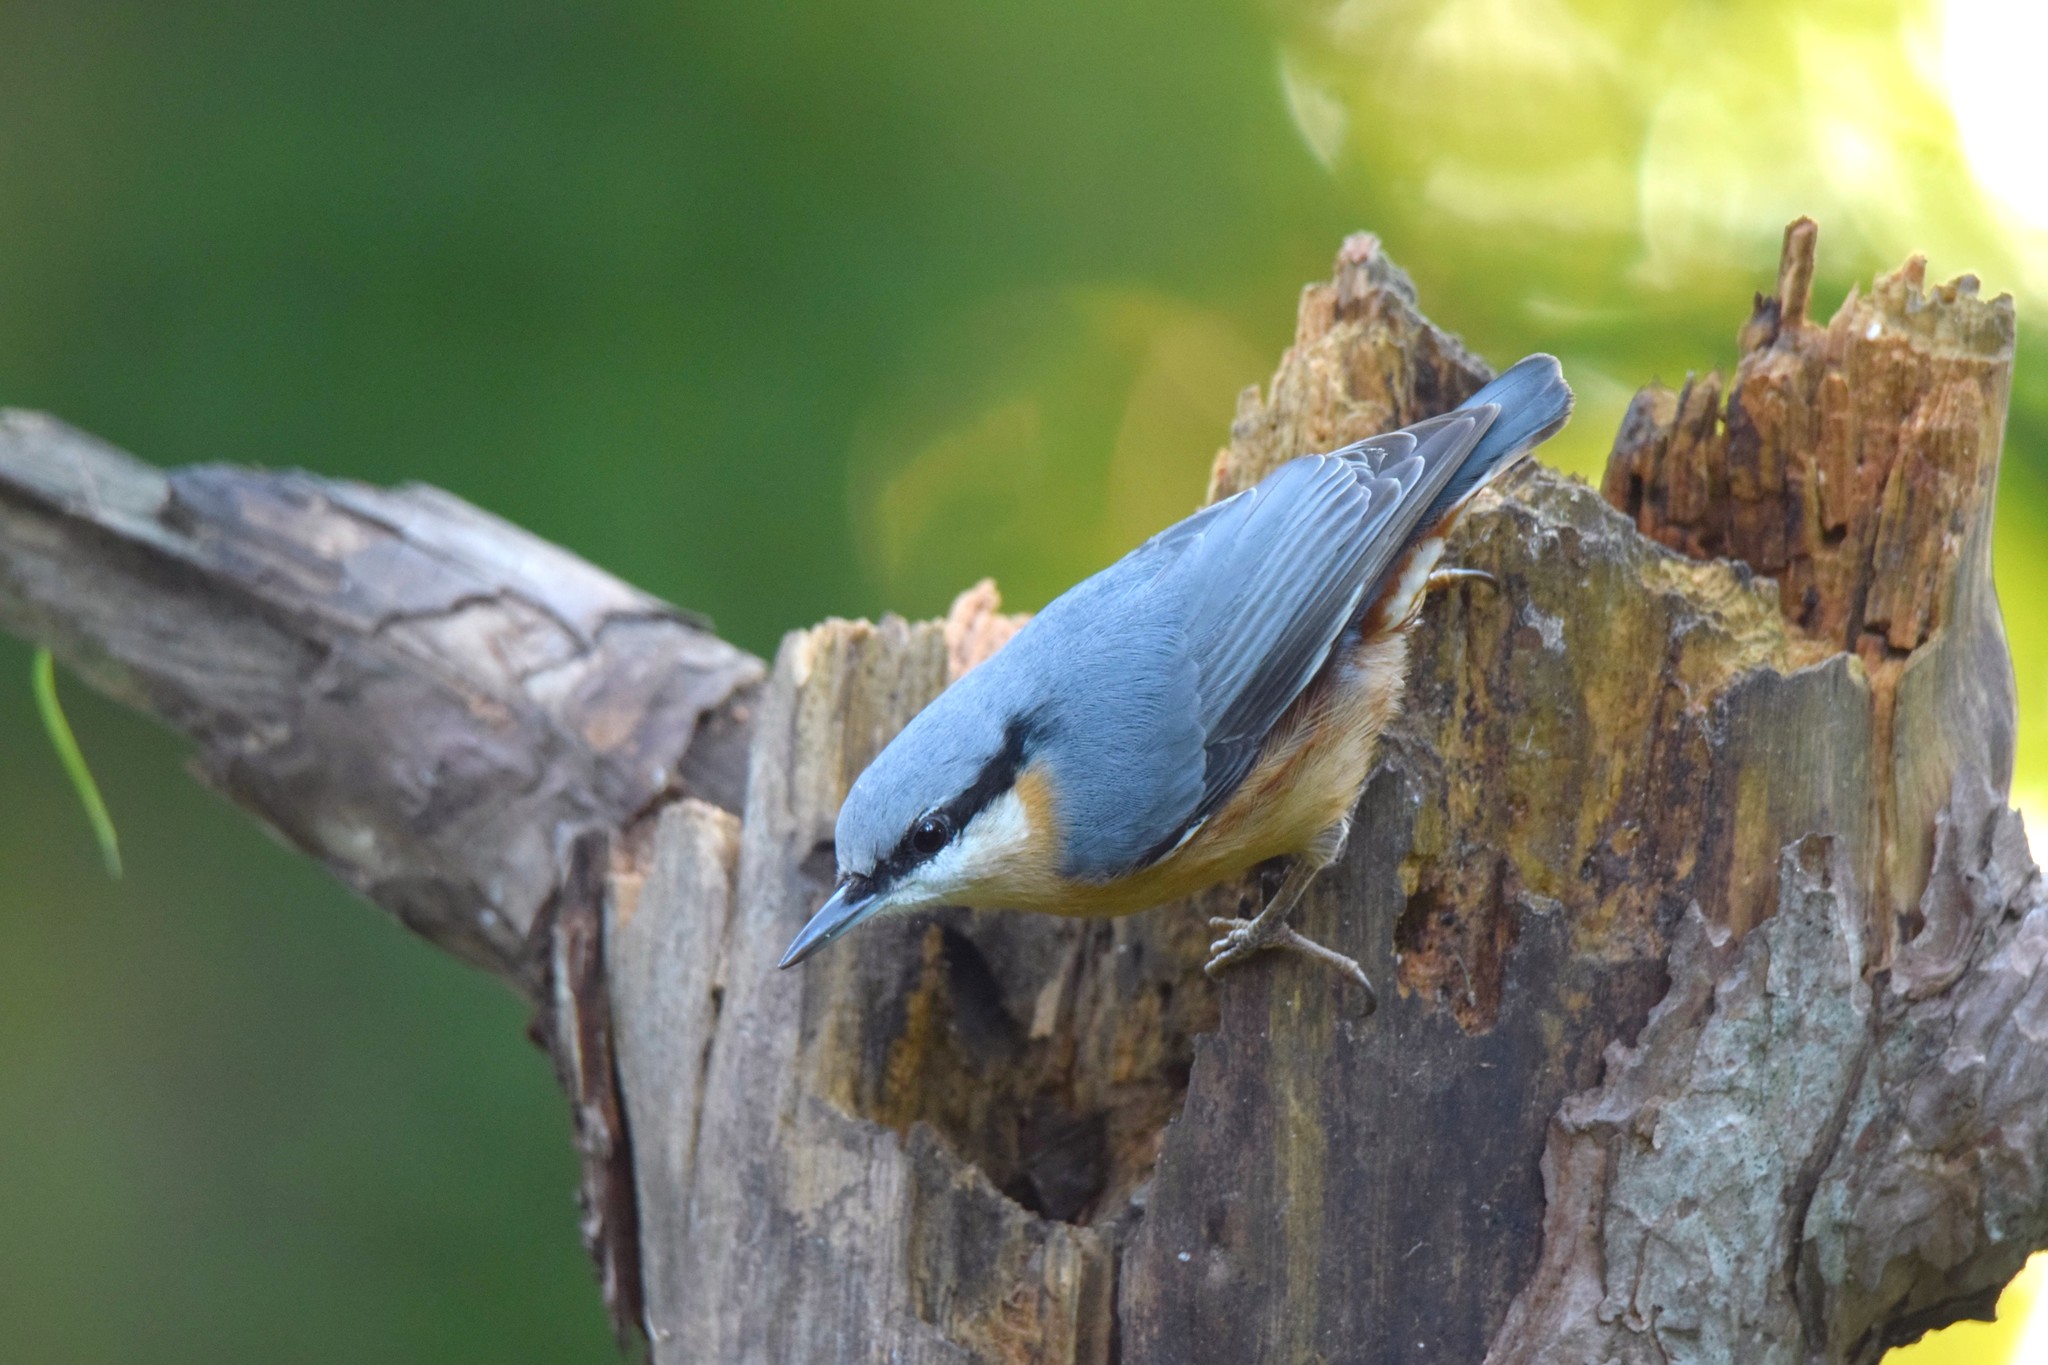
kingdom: Animalia
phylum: Chordata
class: Aves
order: Passeriformes
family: Sittidae
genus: Sitta
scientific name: Sitta europaea
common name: Eurasian nuthatch
